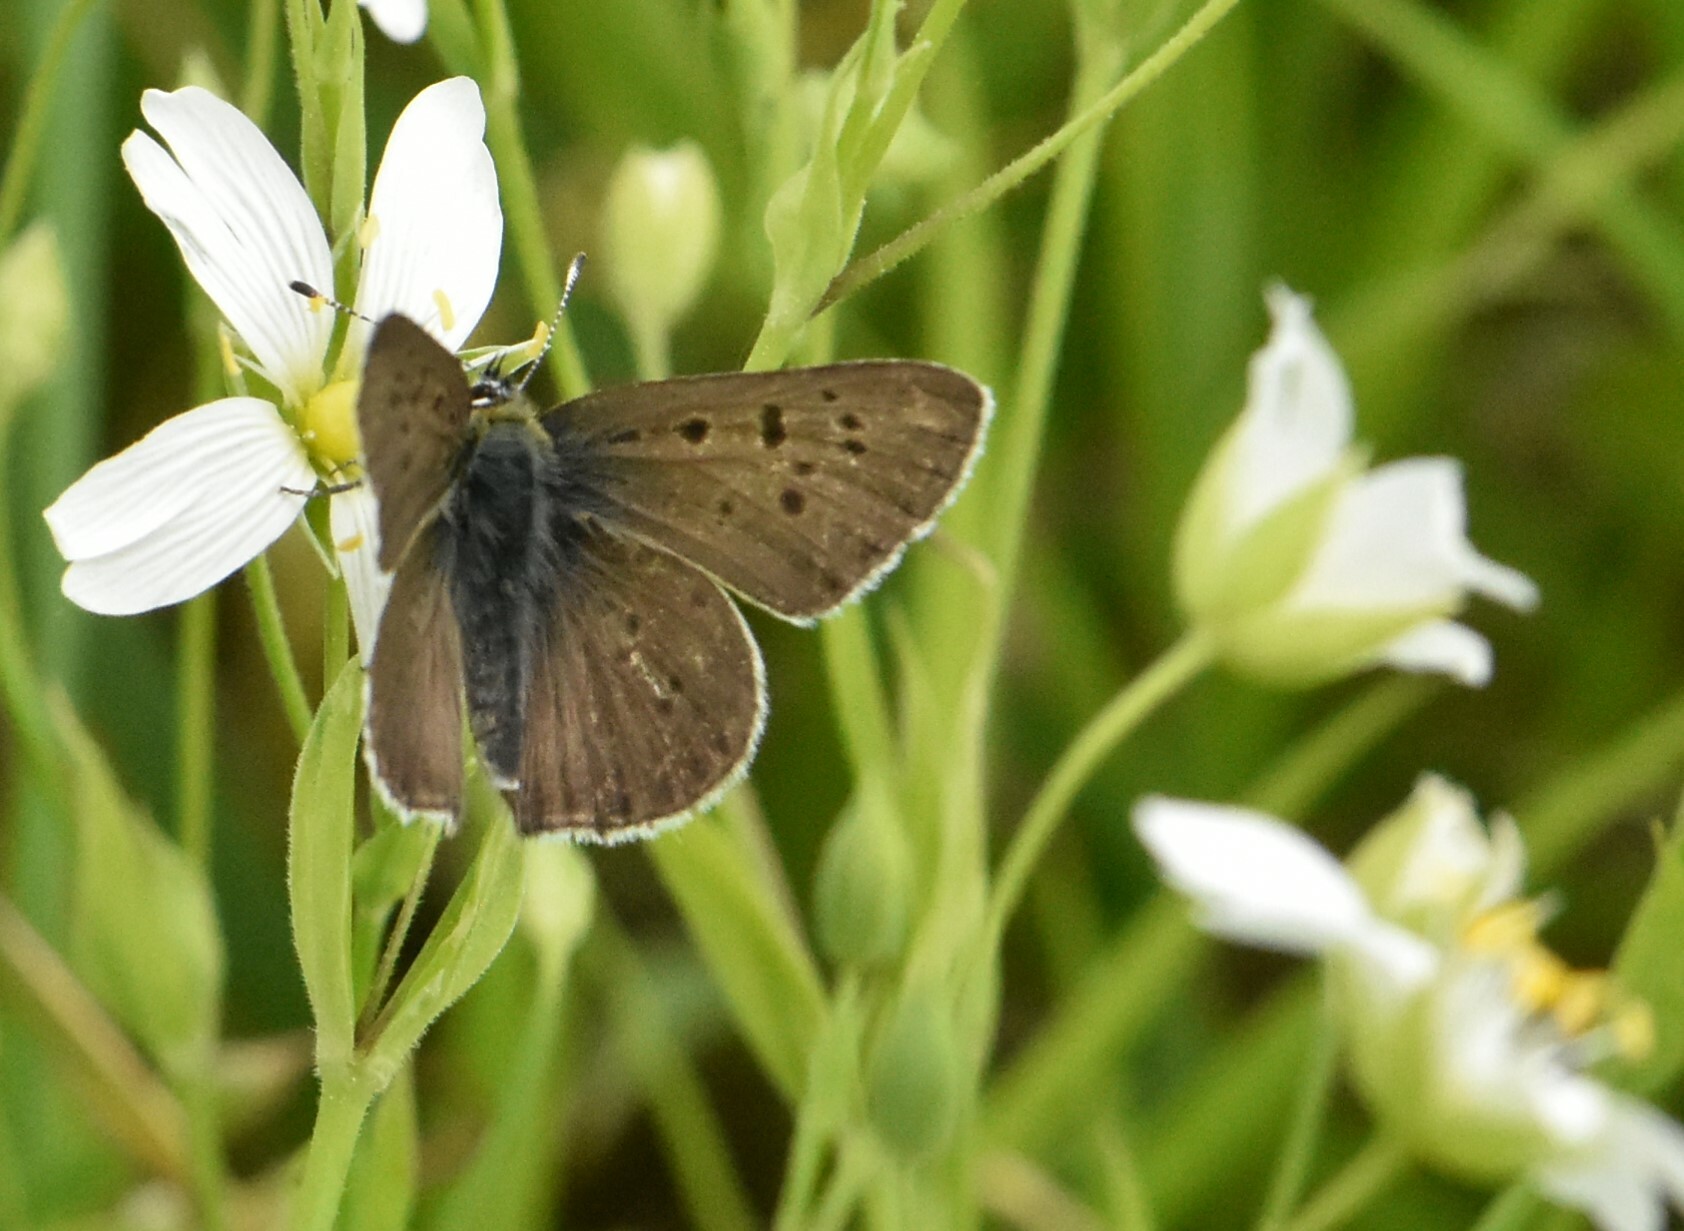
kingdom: Animalia
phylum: Arthropoda
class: Insecta
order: Lepidoptera
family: Lycaenidae
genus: Loweia
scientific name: Loweia tityrus
